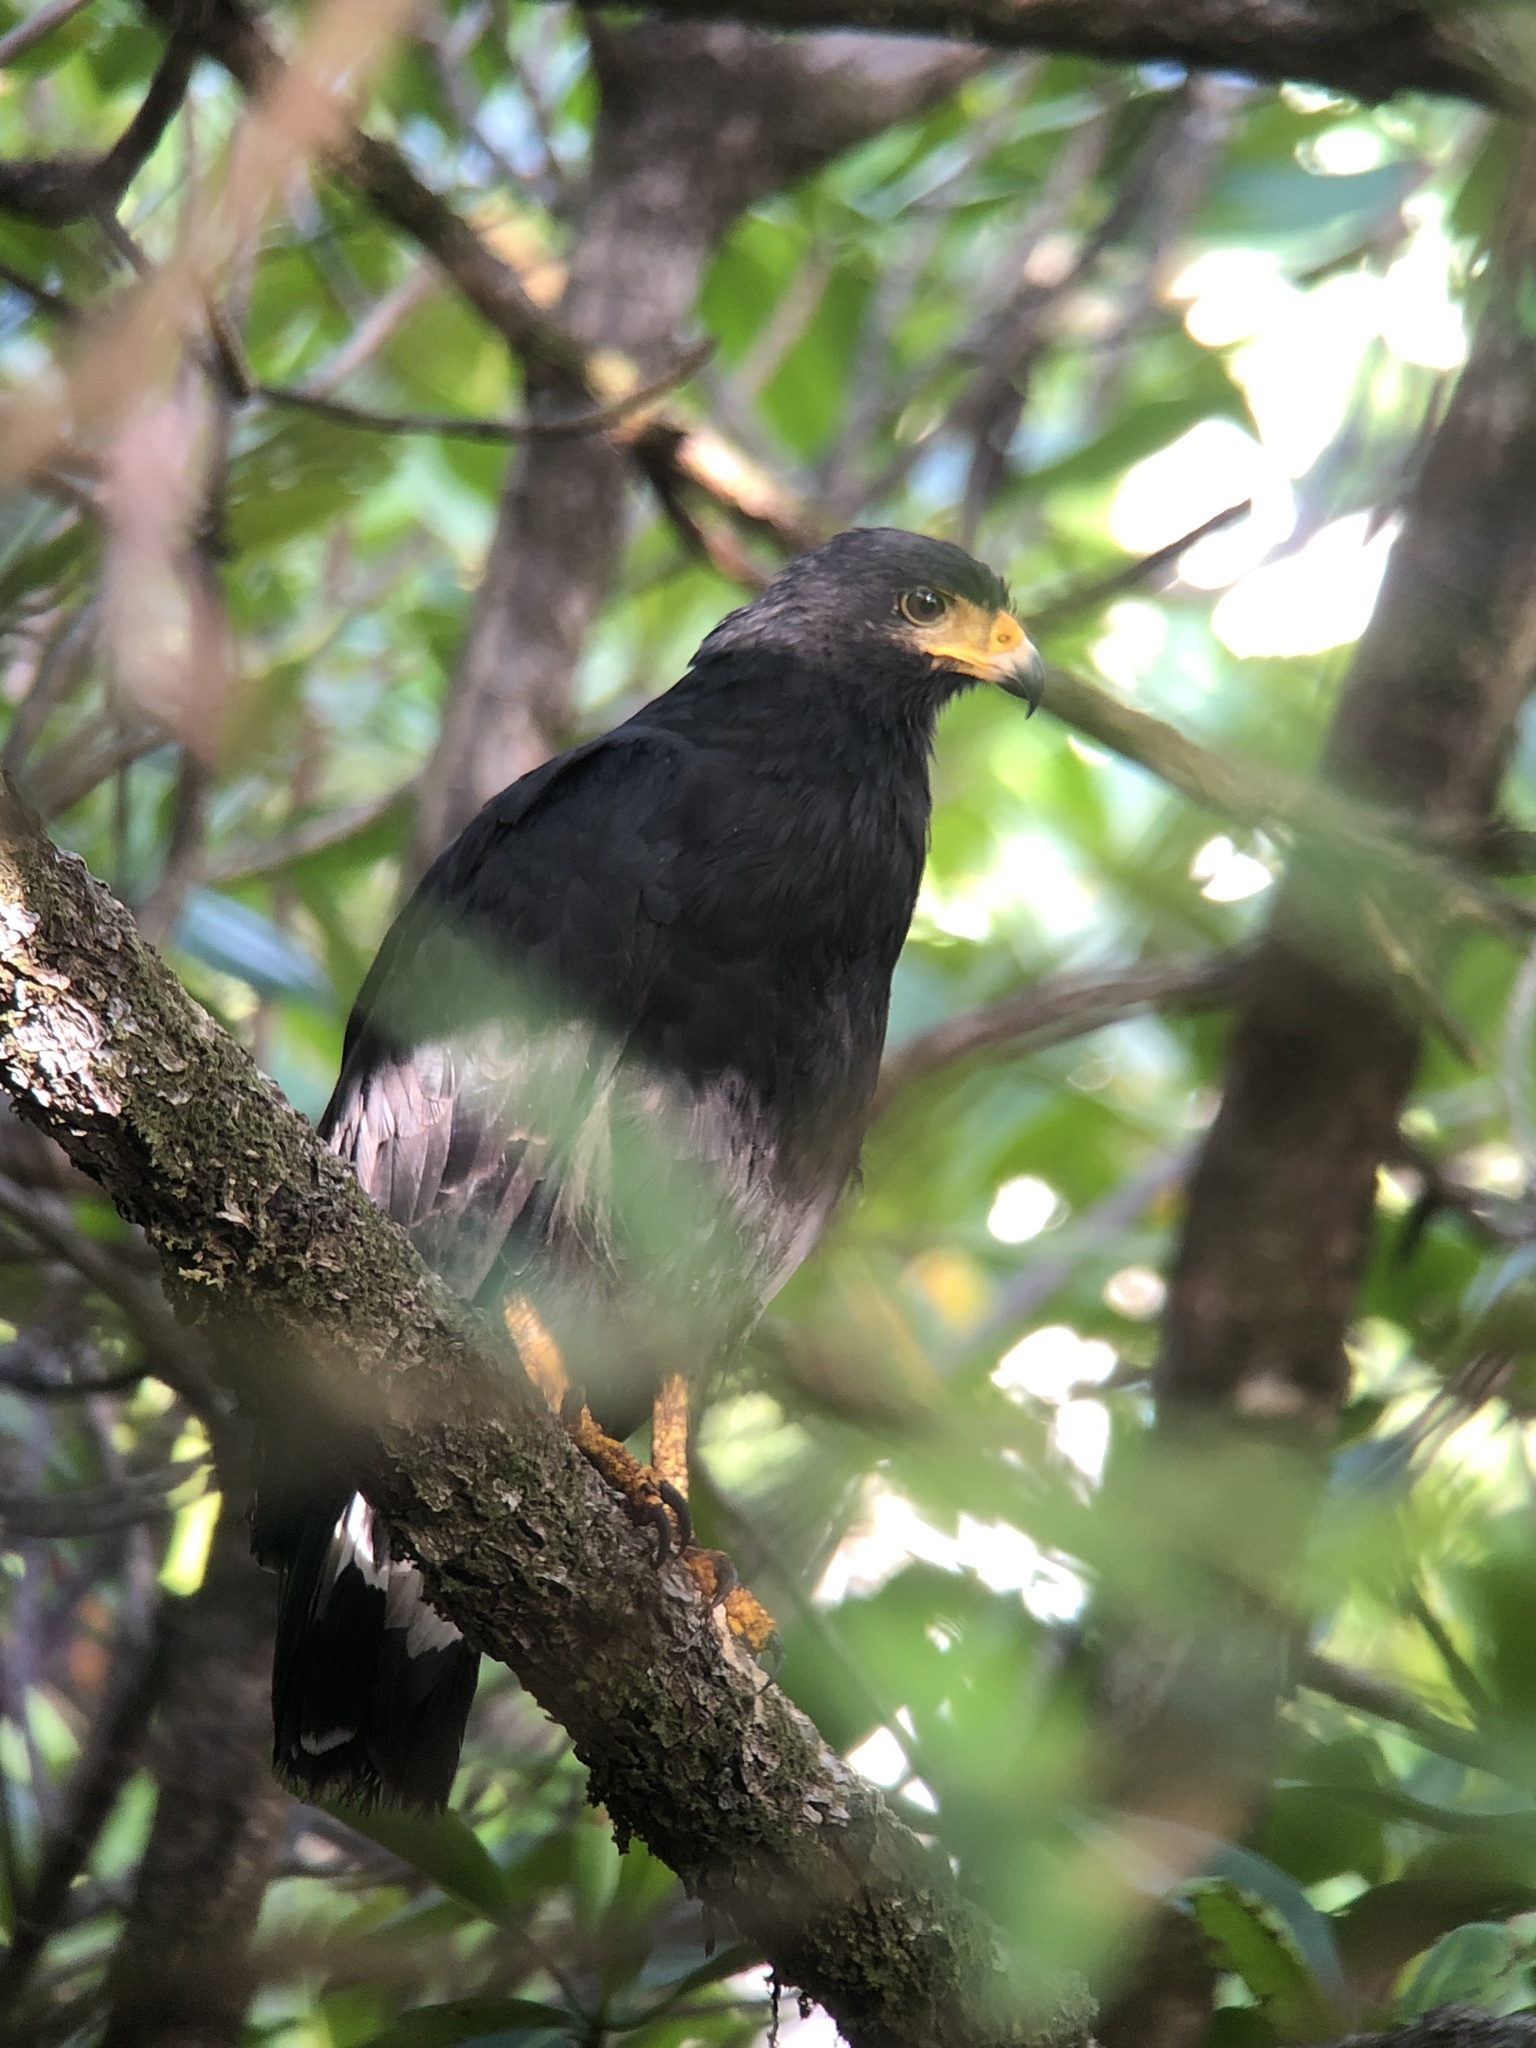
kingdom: Animalia
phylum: Chordata
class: Aves
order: Accipitriformes
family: Accipitridae
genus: Buteogallus
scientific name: Buteogallus anthracinus
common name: Common black hawk
